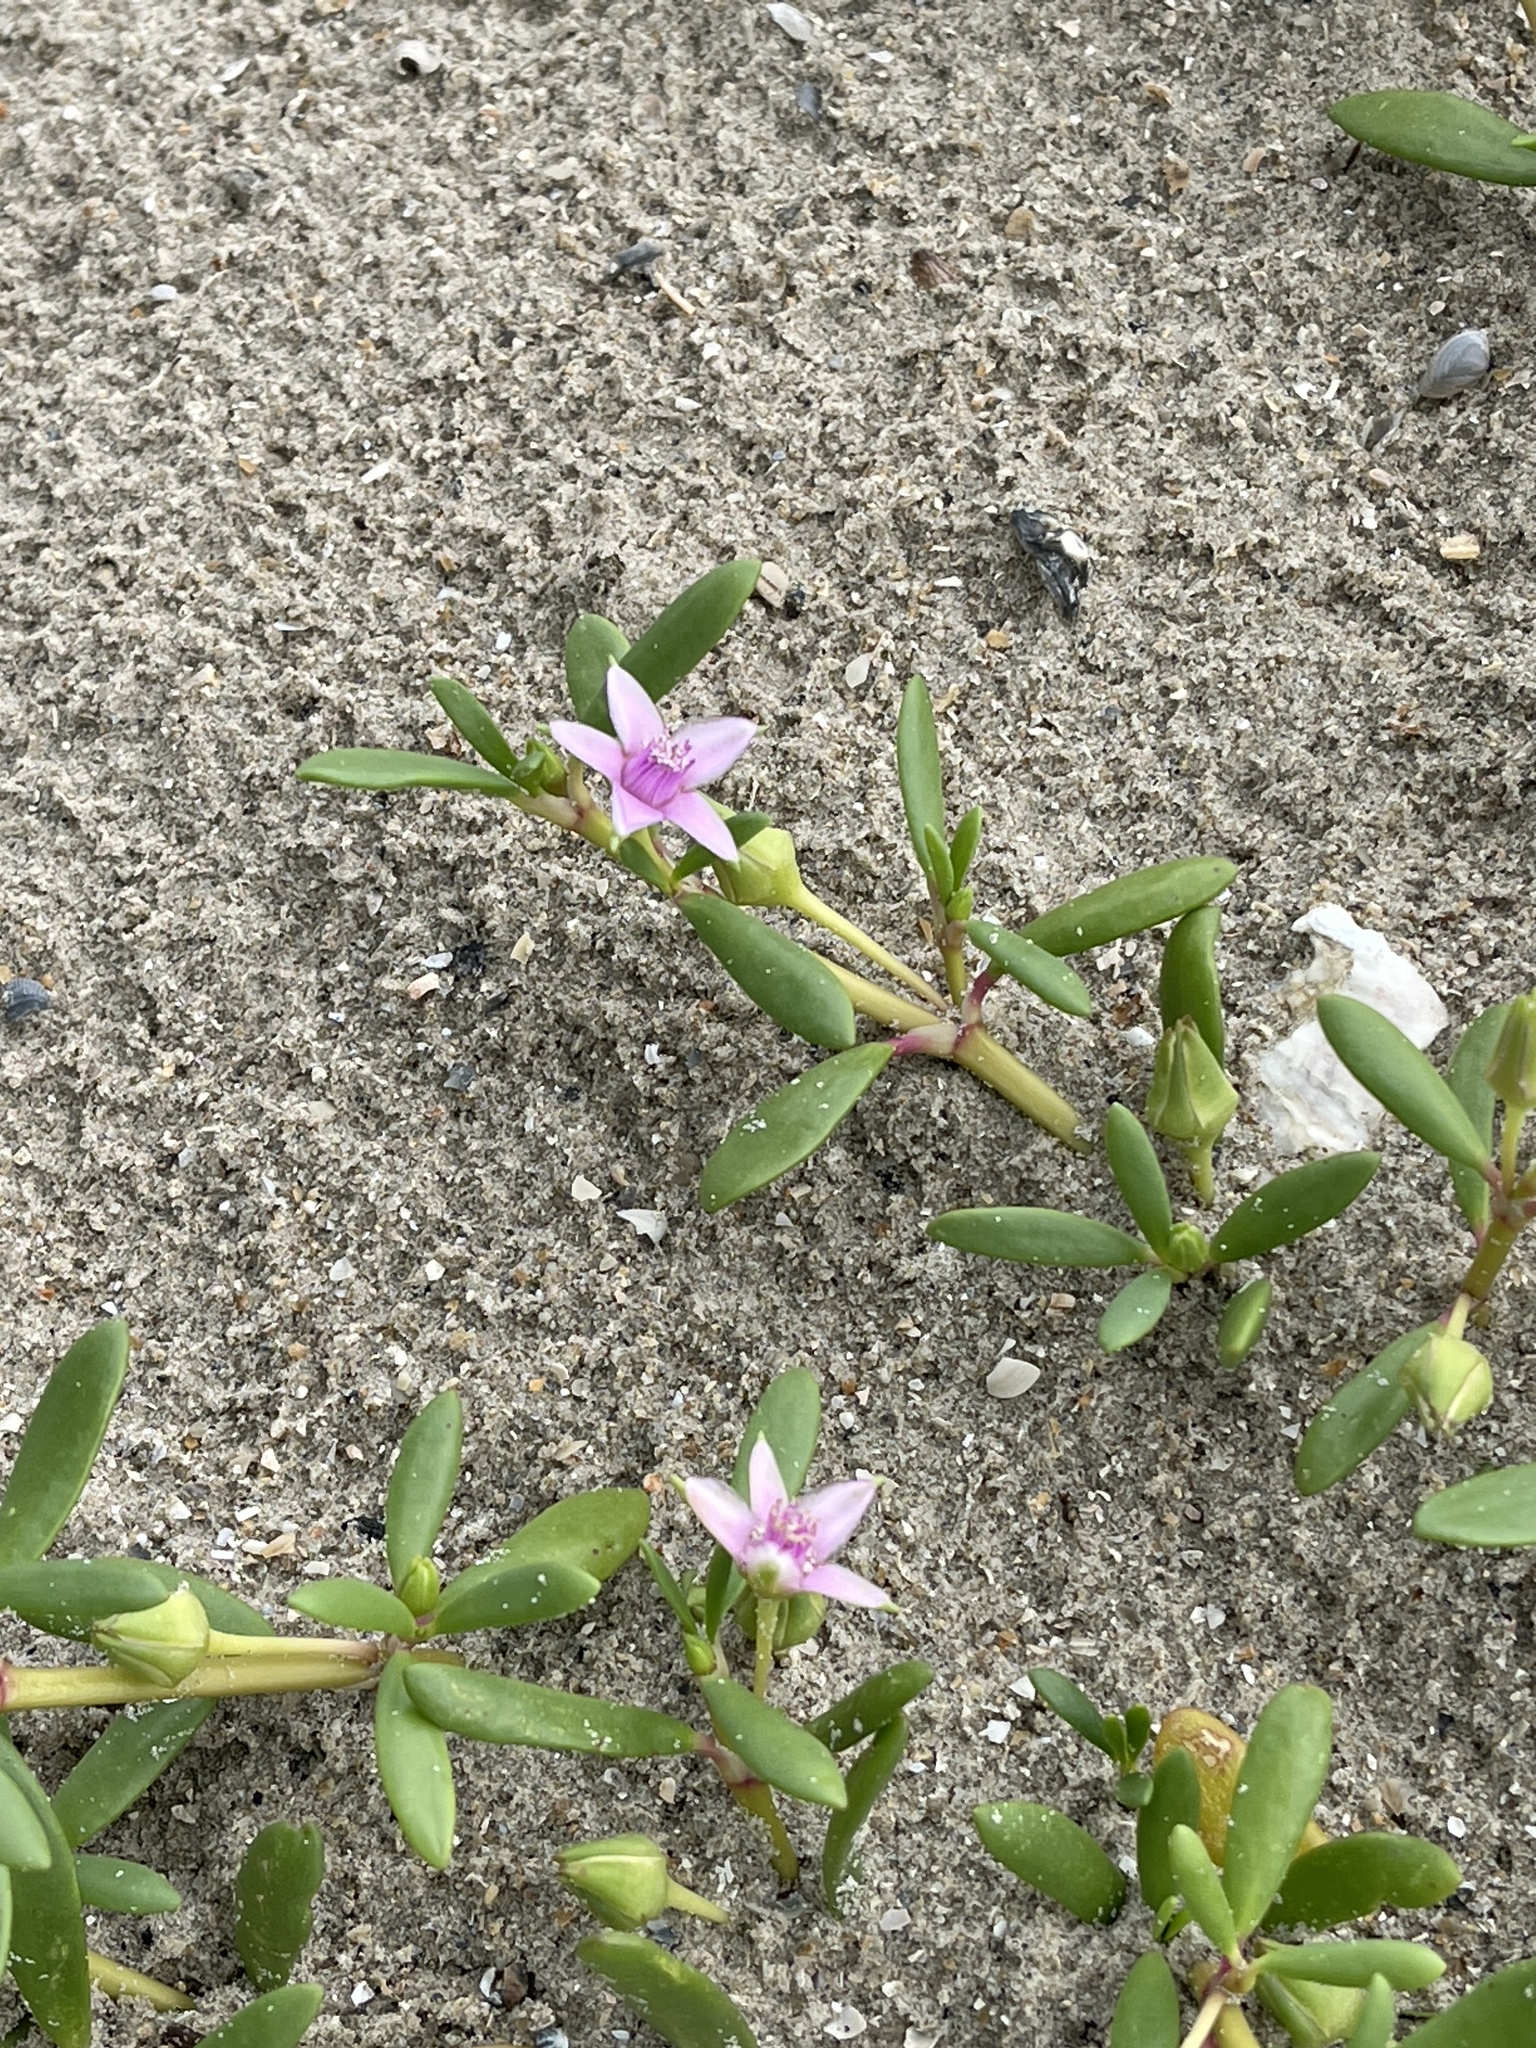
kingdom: Plantae
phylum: Tracheophyta
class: Magnoliopsida
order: Caryophyllales
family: Aizoaceae
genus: Sesuvium
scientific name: Sesuvium portulacastrum
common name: Sea-purslane
